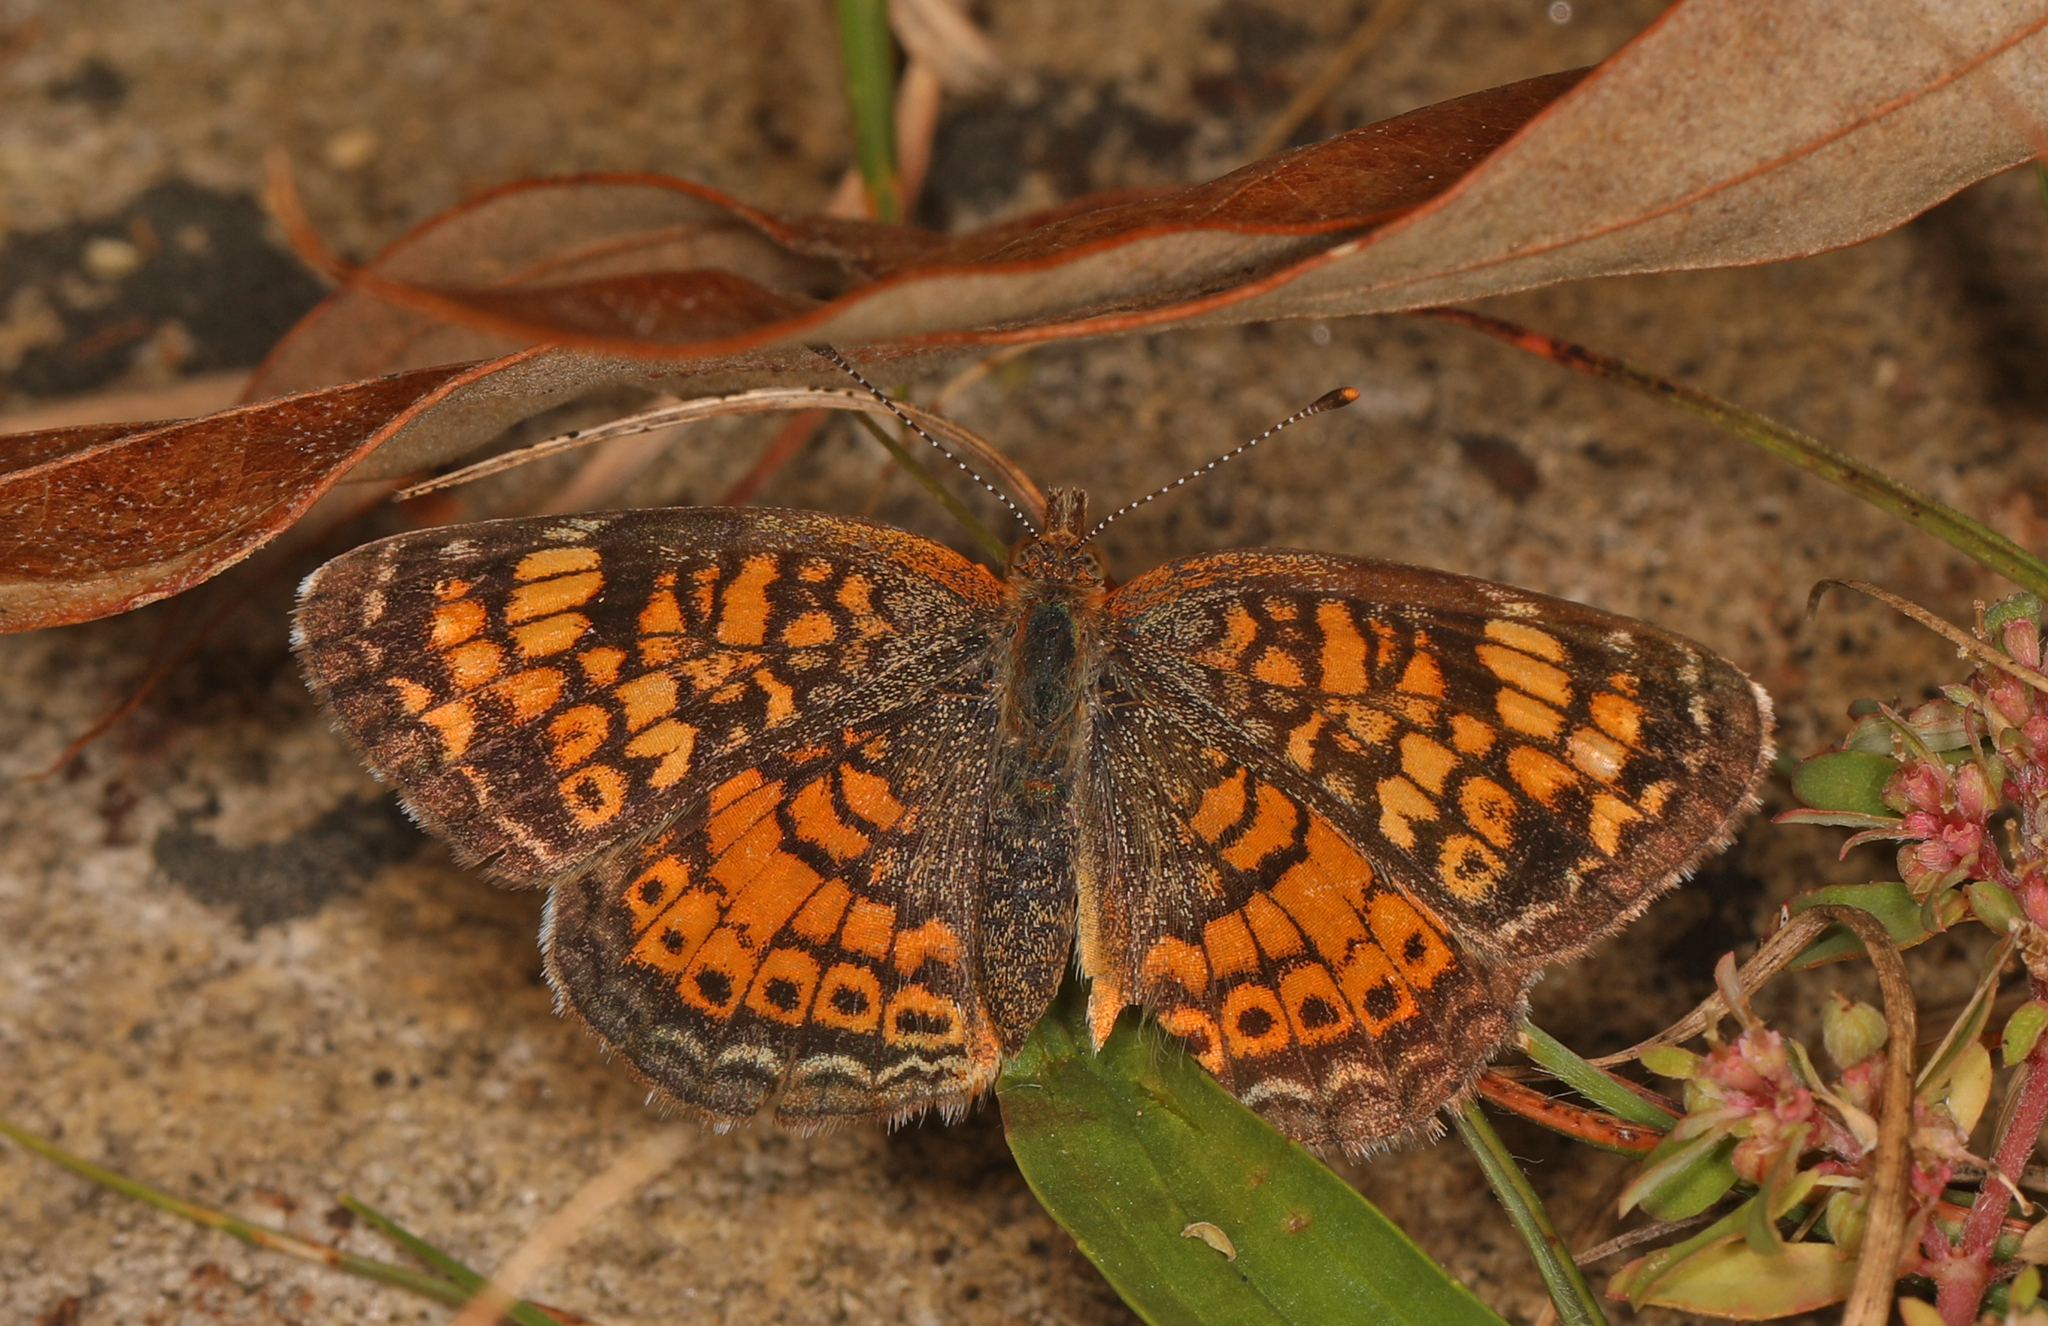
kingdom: Animalia
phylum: Arthropoda
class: Insecta
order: Lepidoptera
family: Nymphalidae
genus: Phyciodes
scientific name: Phyciodes tharos
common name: Pearl crescent
